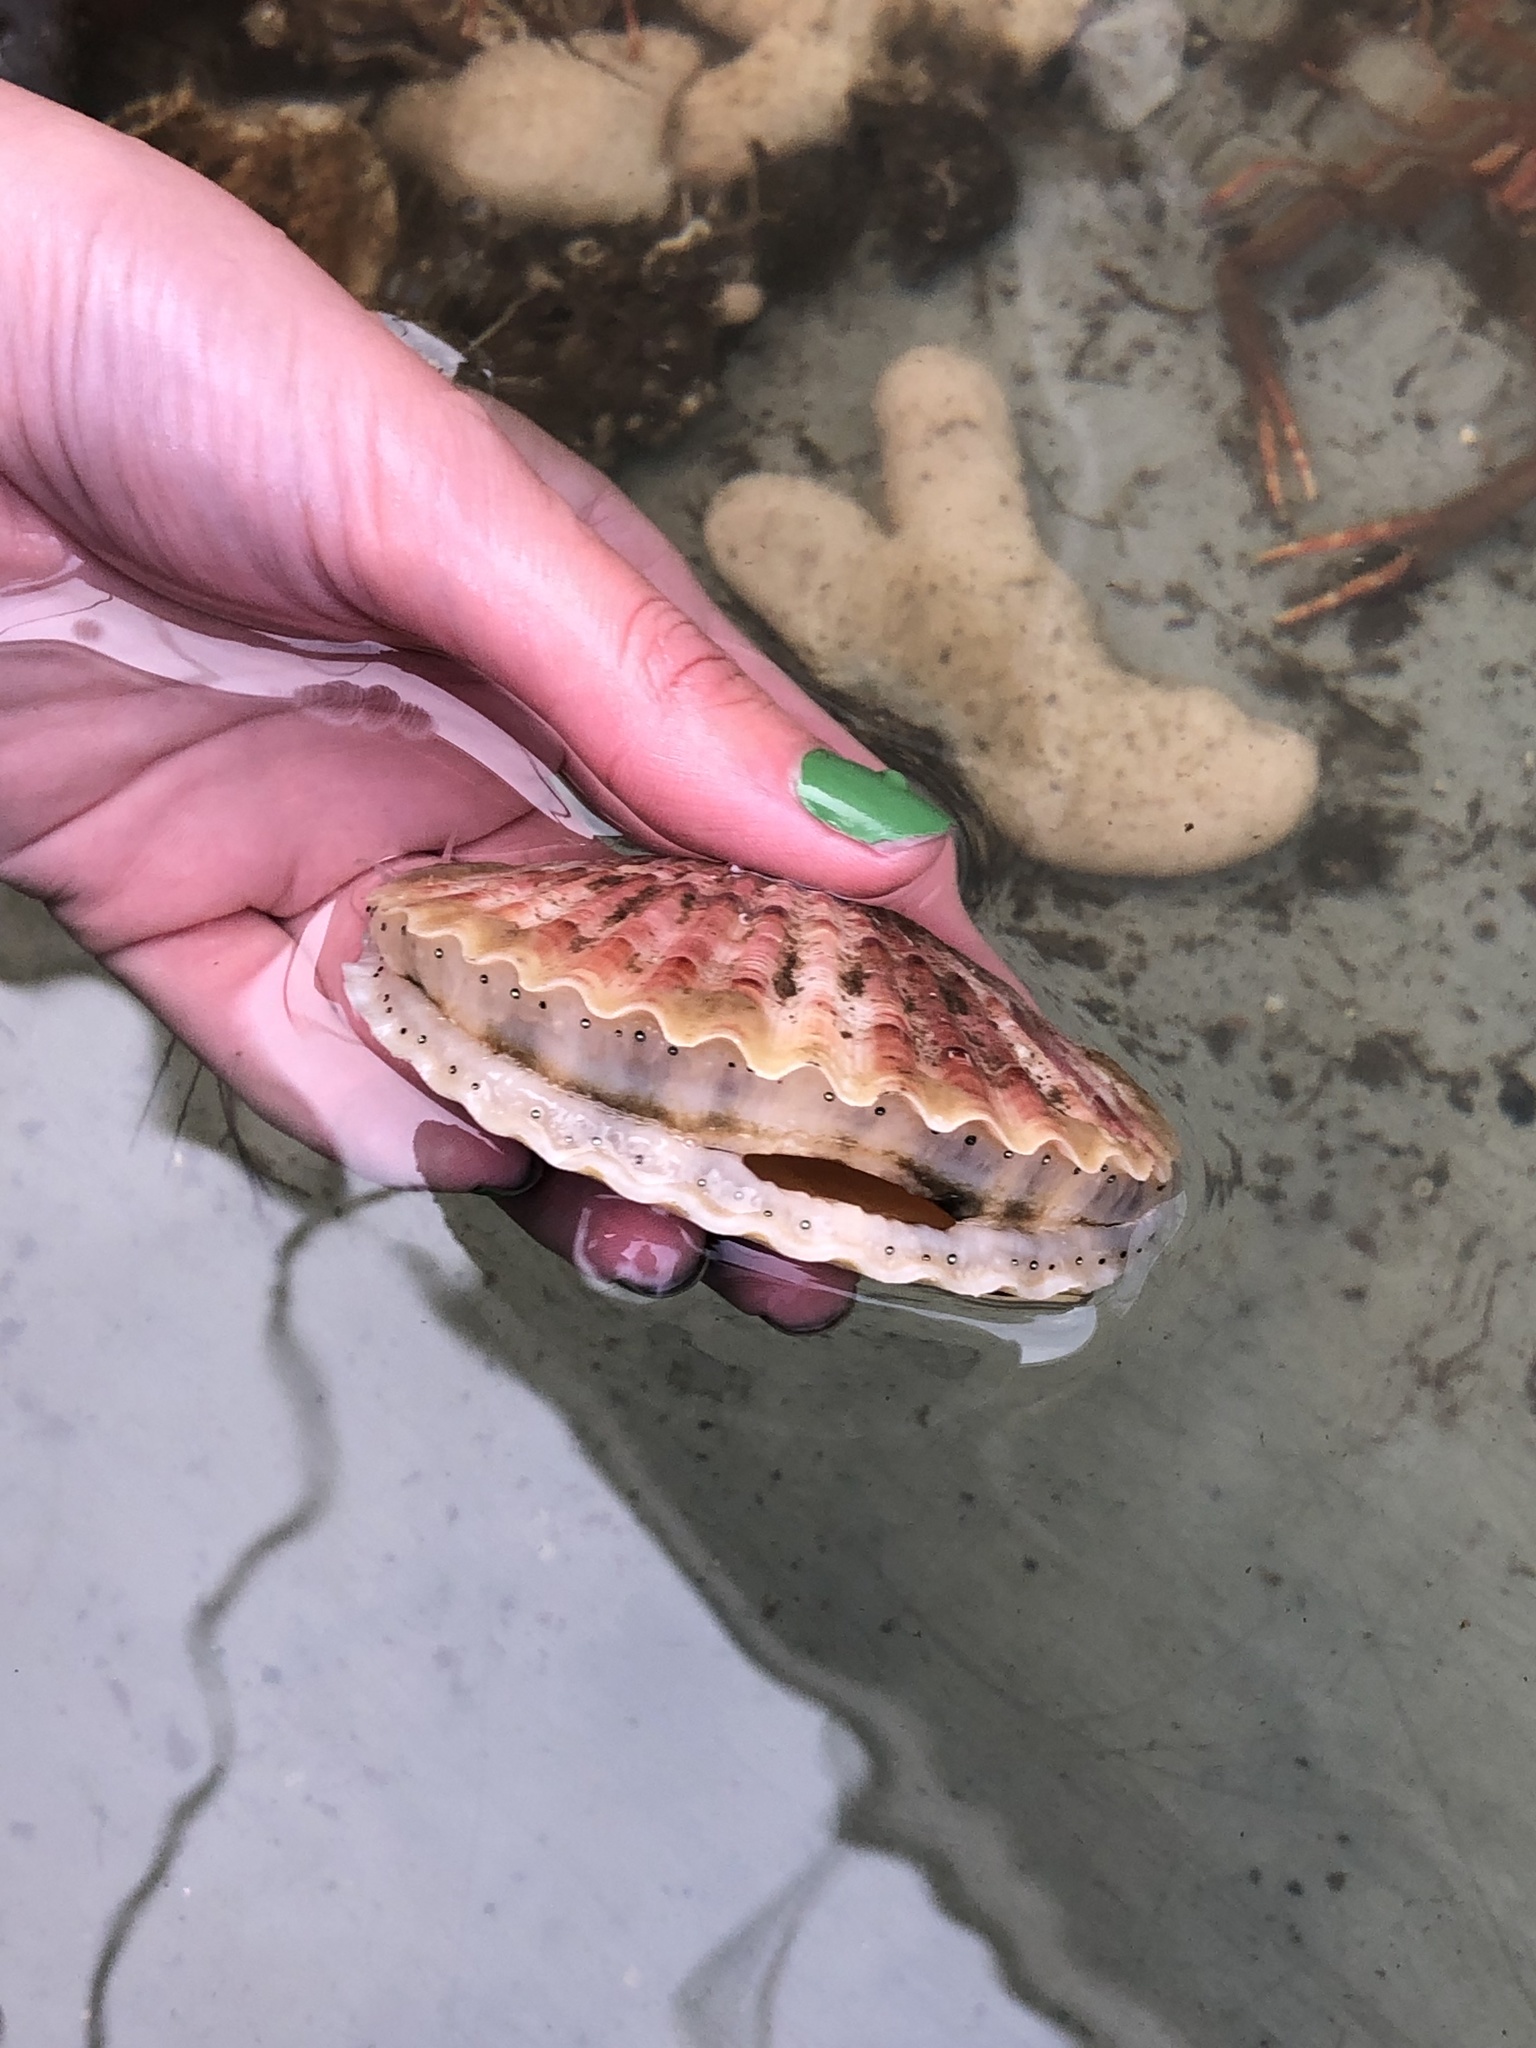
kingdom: Animalia
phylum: Mollusca
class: Bivalvia
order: Pectinida
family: Pectinidae
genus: Aequipecten
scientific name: Aequipecten opercularis
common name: Queen scallop
